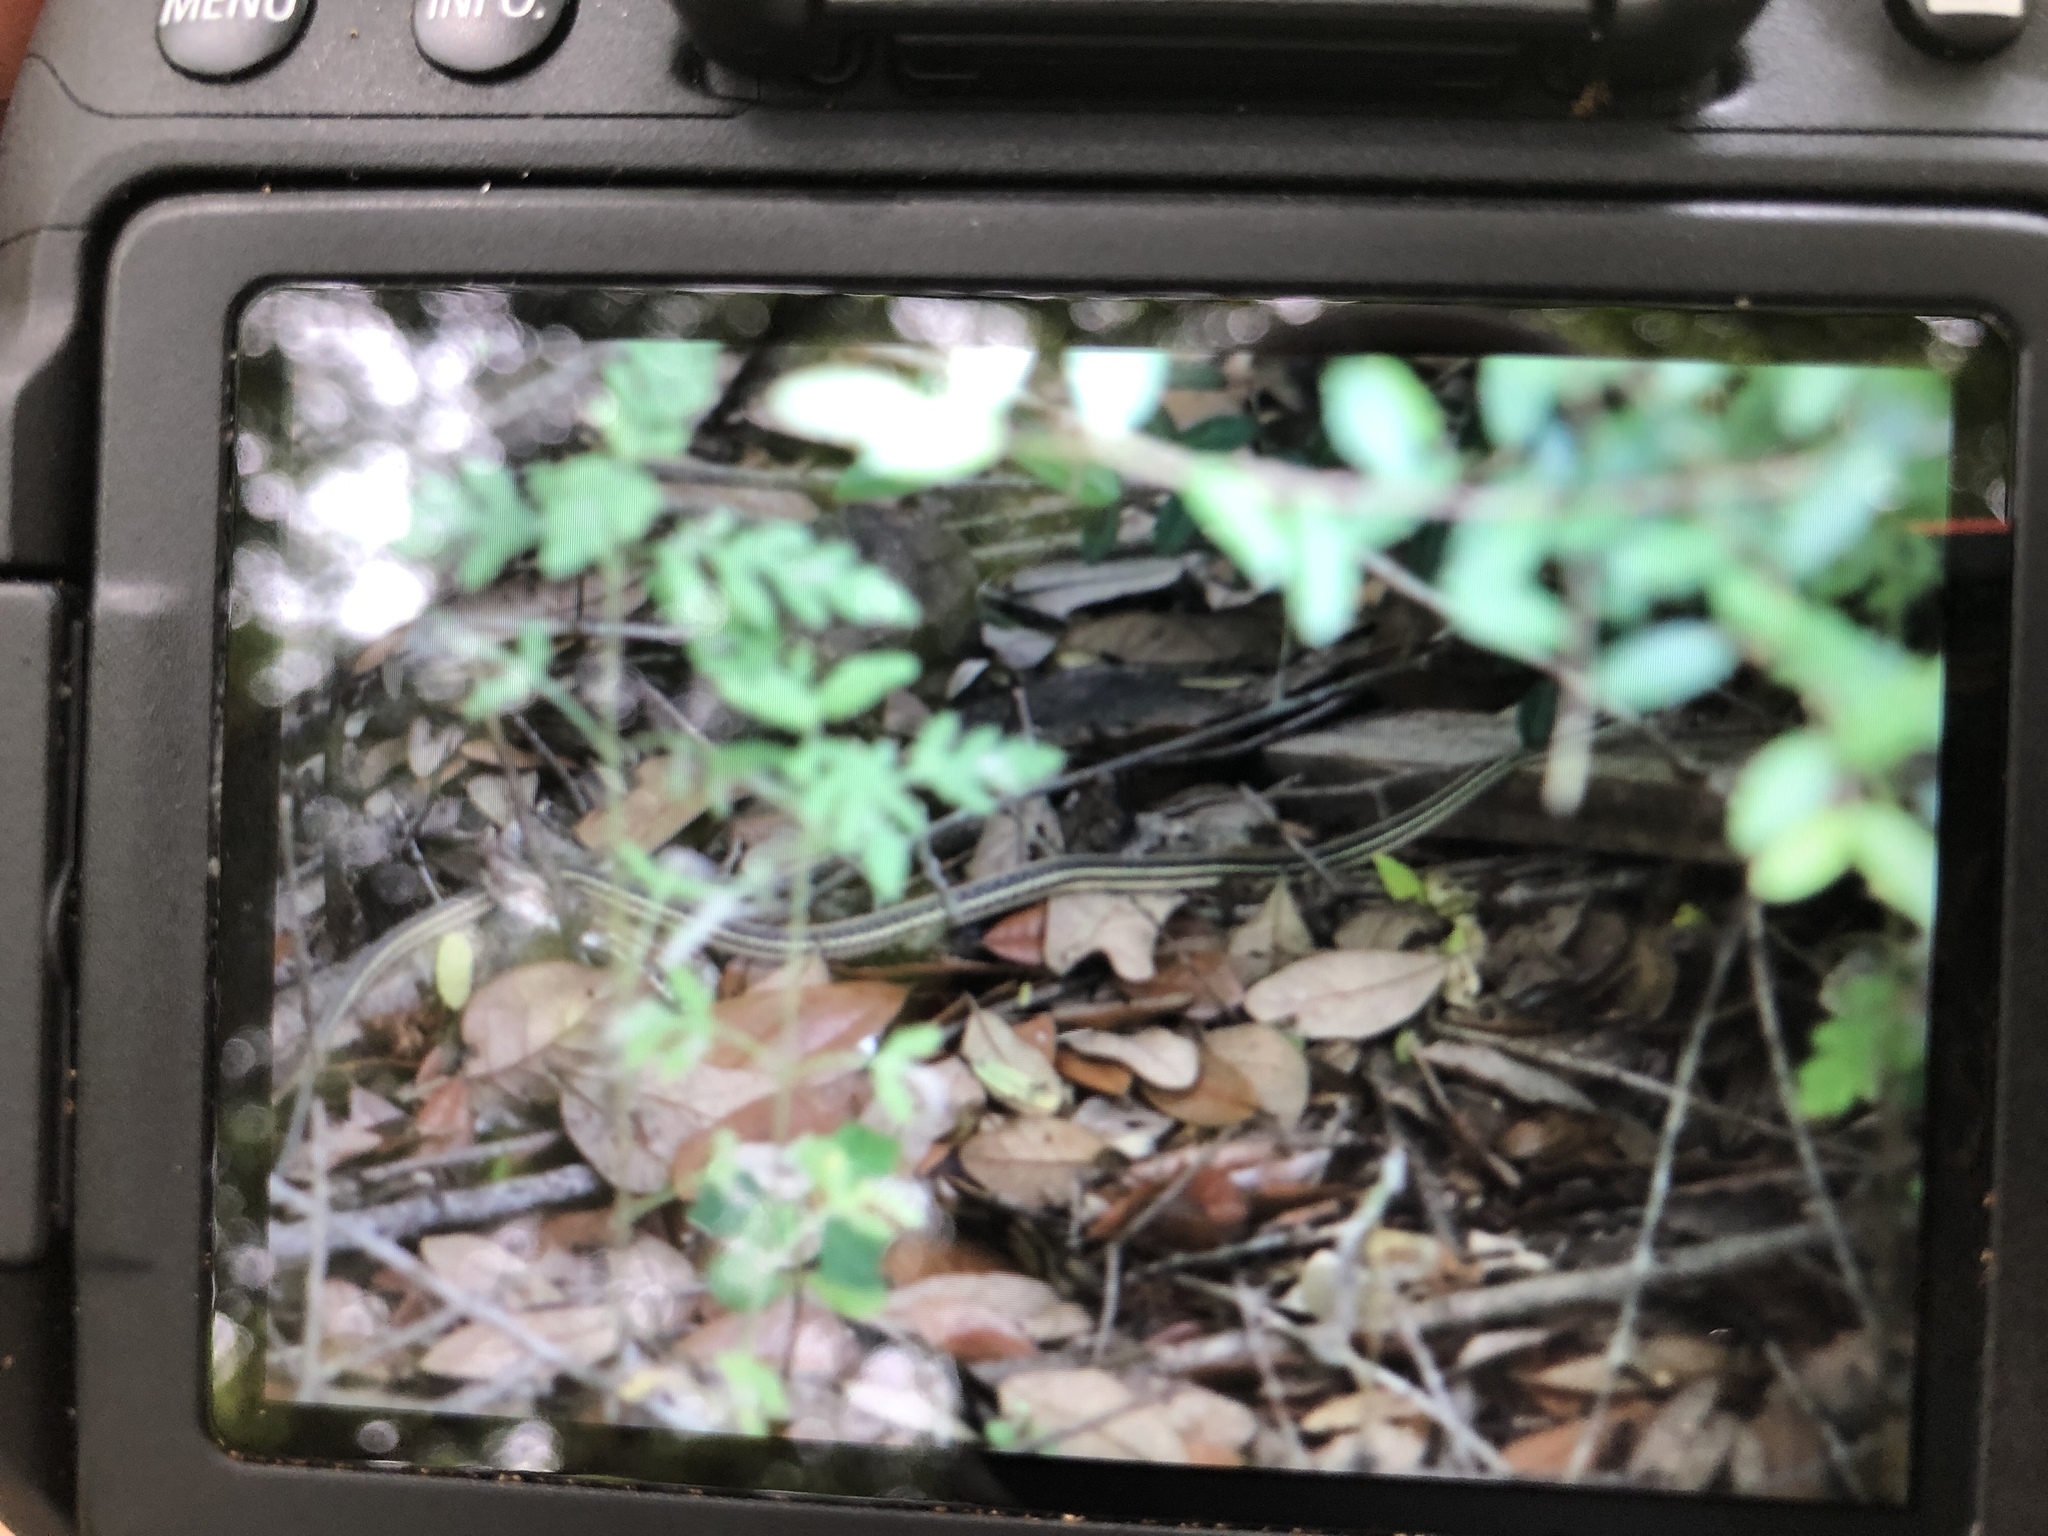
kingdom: Animalia
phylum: Chordata
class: Squamata
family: Colubridae
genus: Thamnophis
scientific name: Thamnophis proximus
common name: Western ribbon snake
